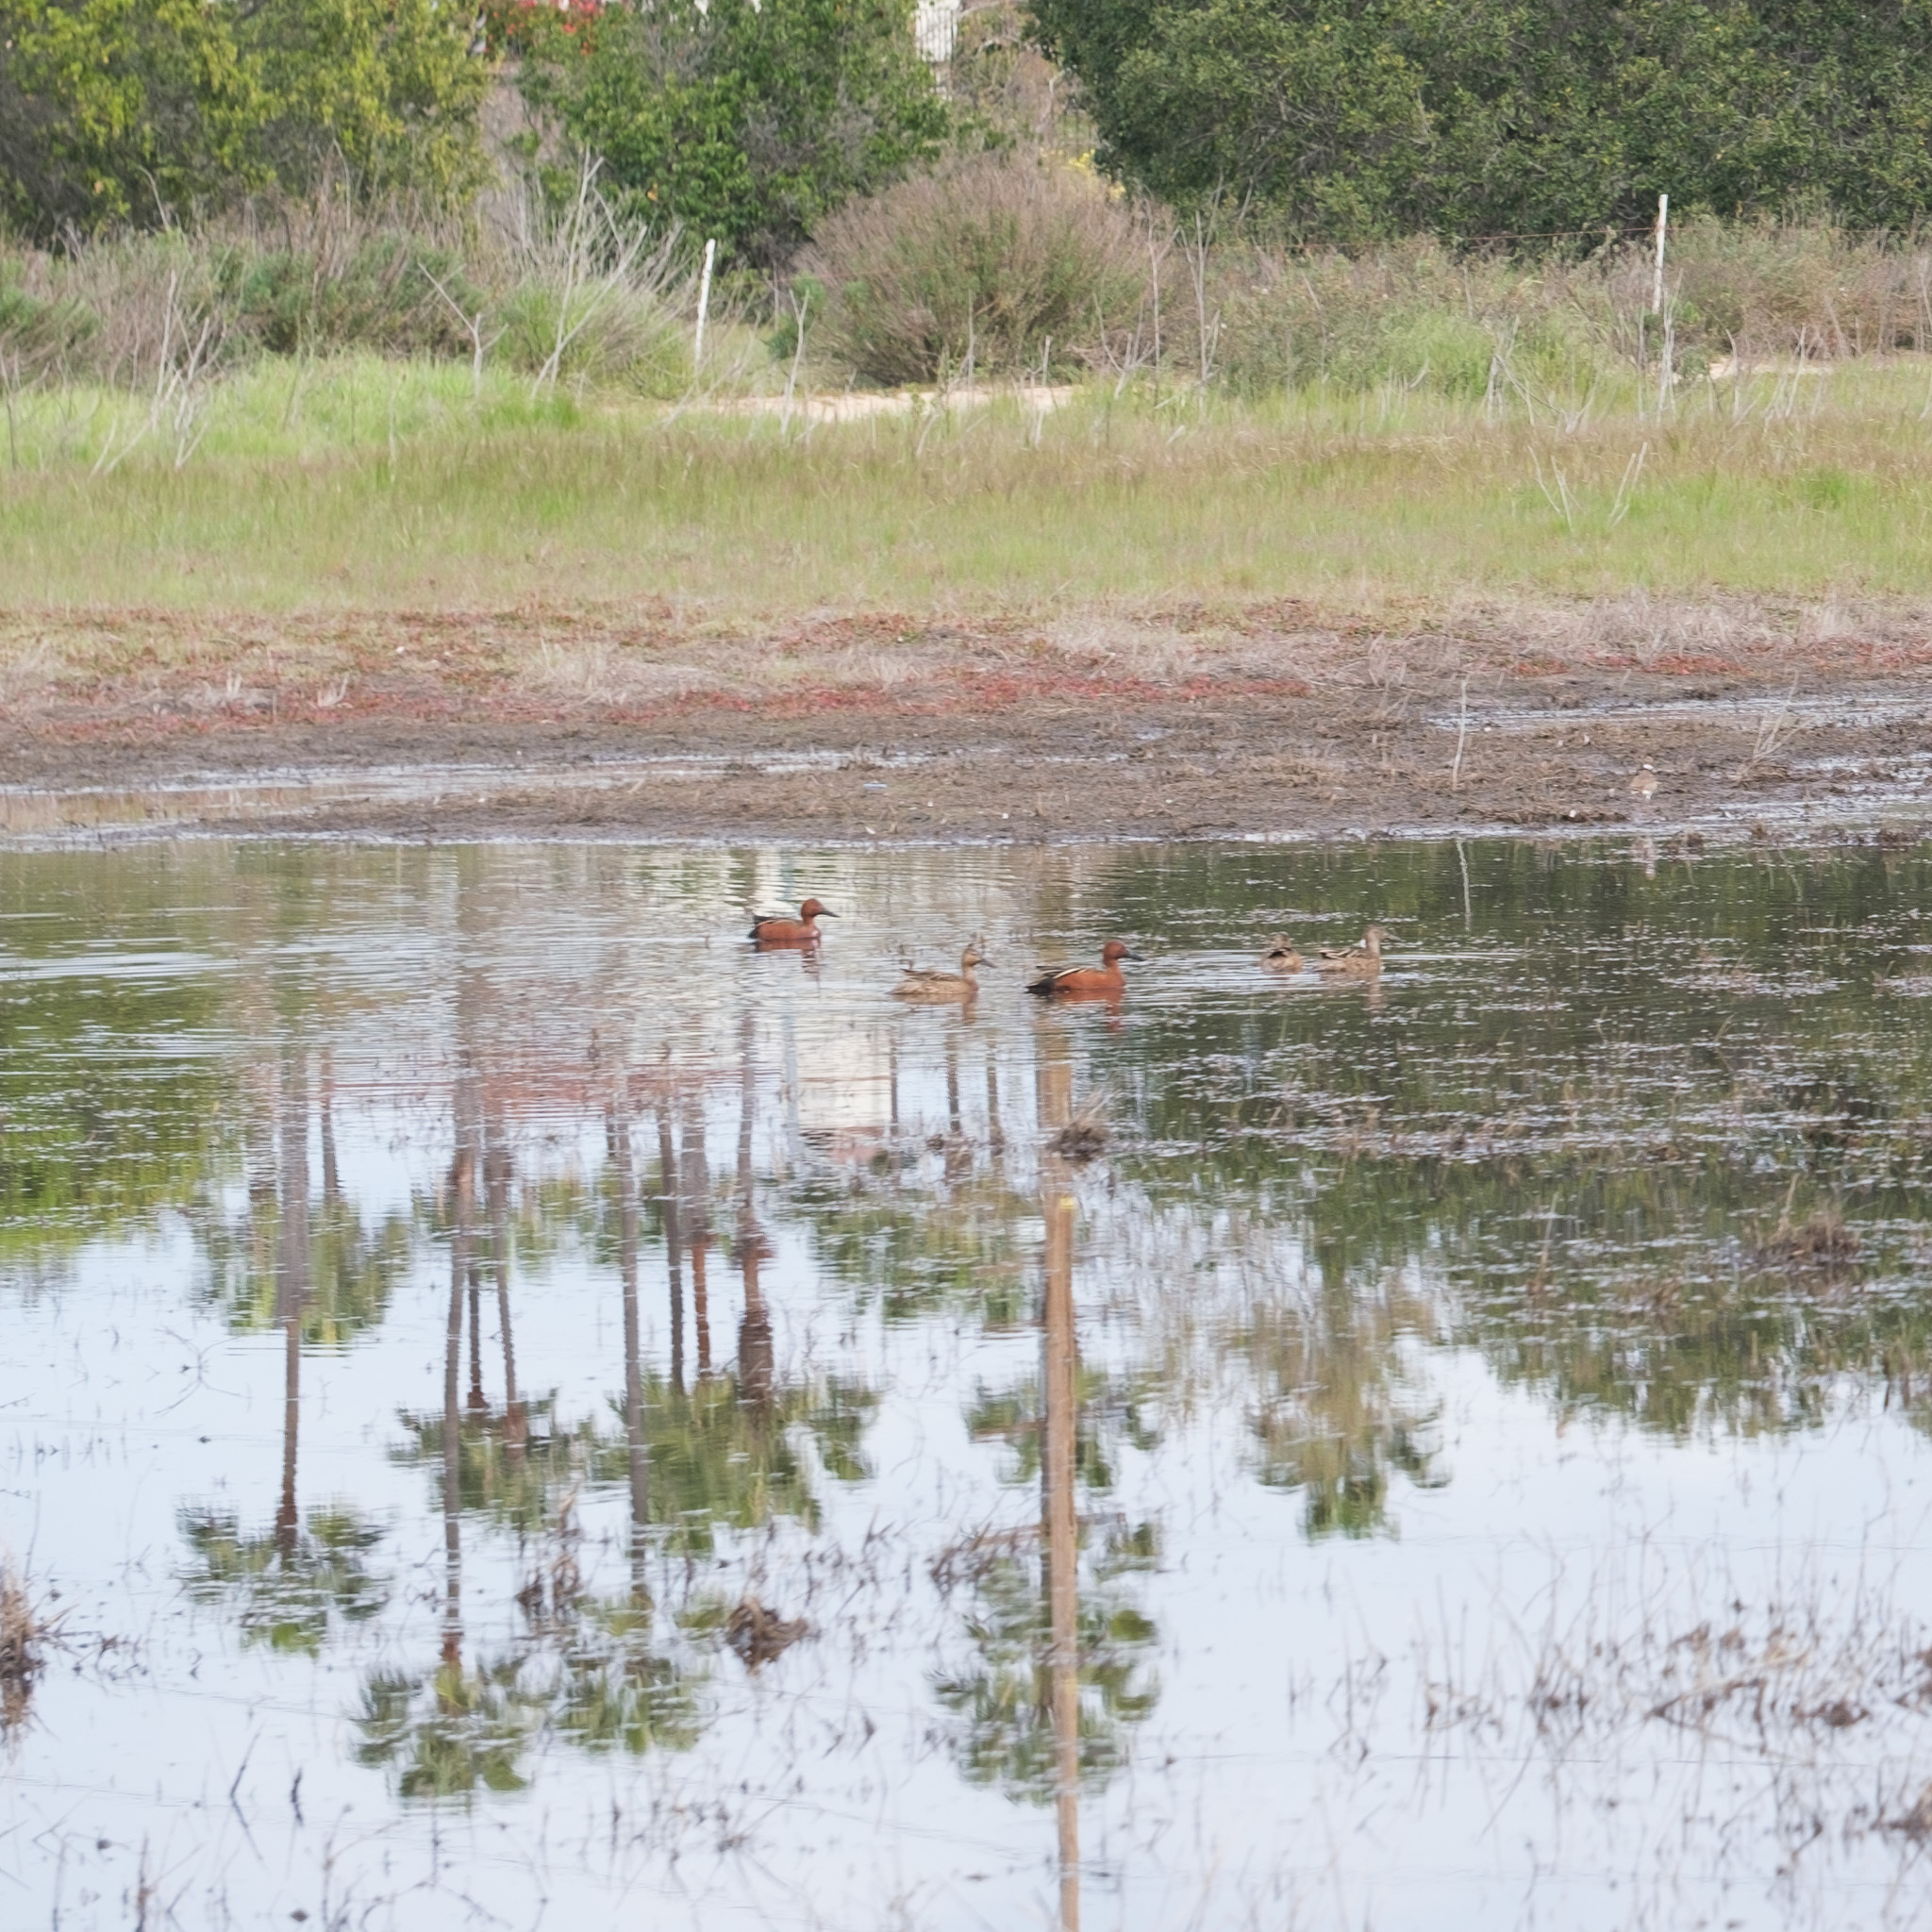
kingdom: Animalia
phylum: Chordata
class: Aves
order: Anseriformes
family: Anatidae
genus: Spatula
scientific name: Spatula cyanoptera
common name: Cinnamon teal
